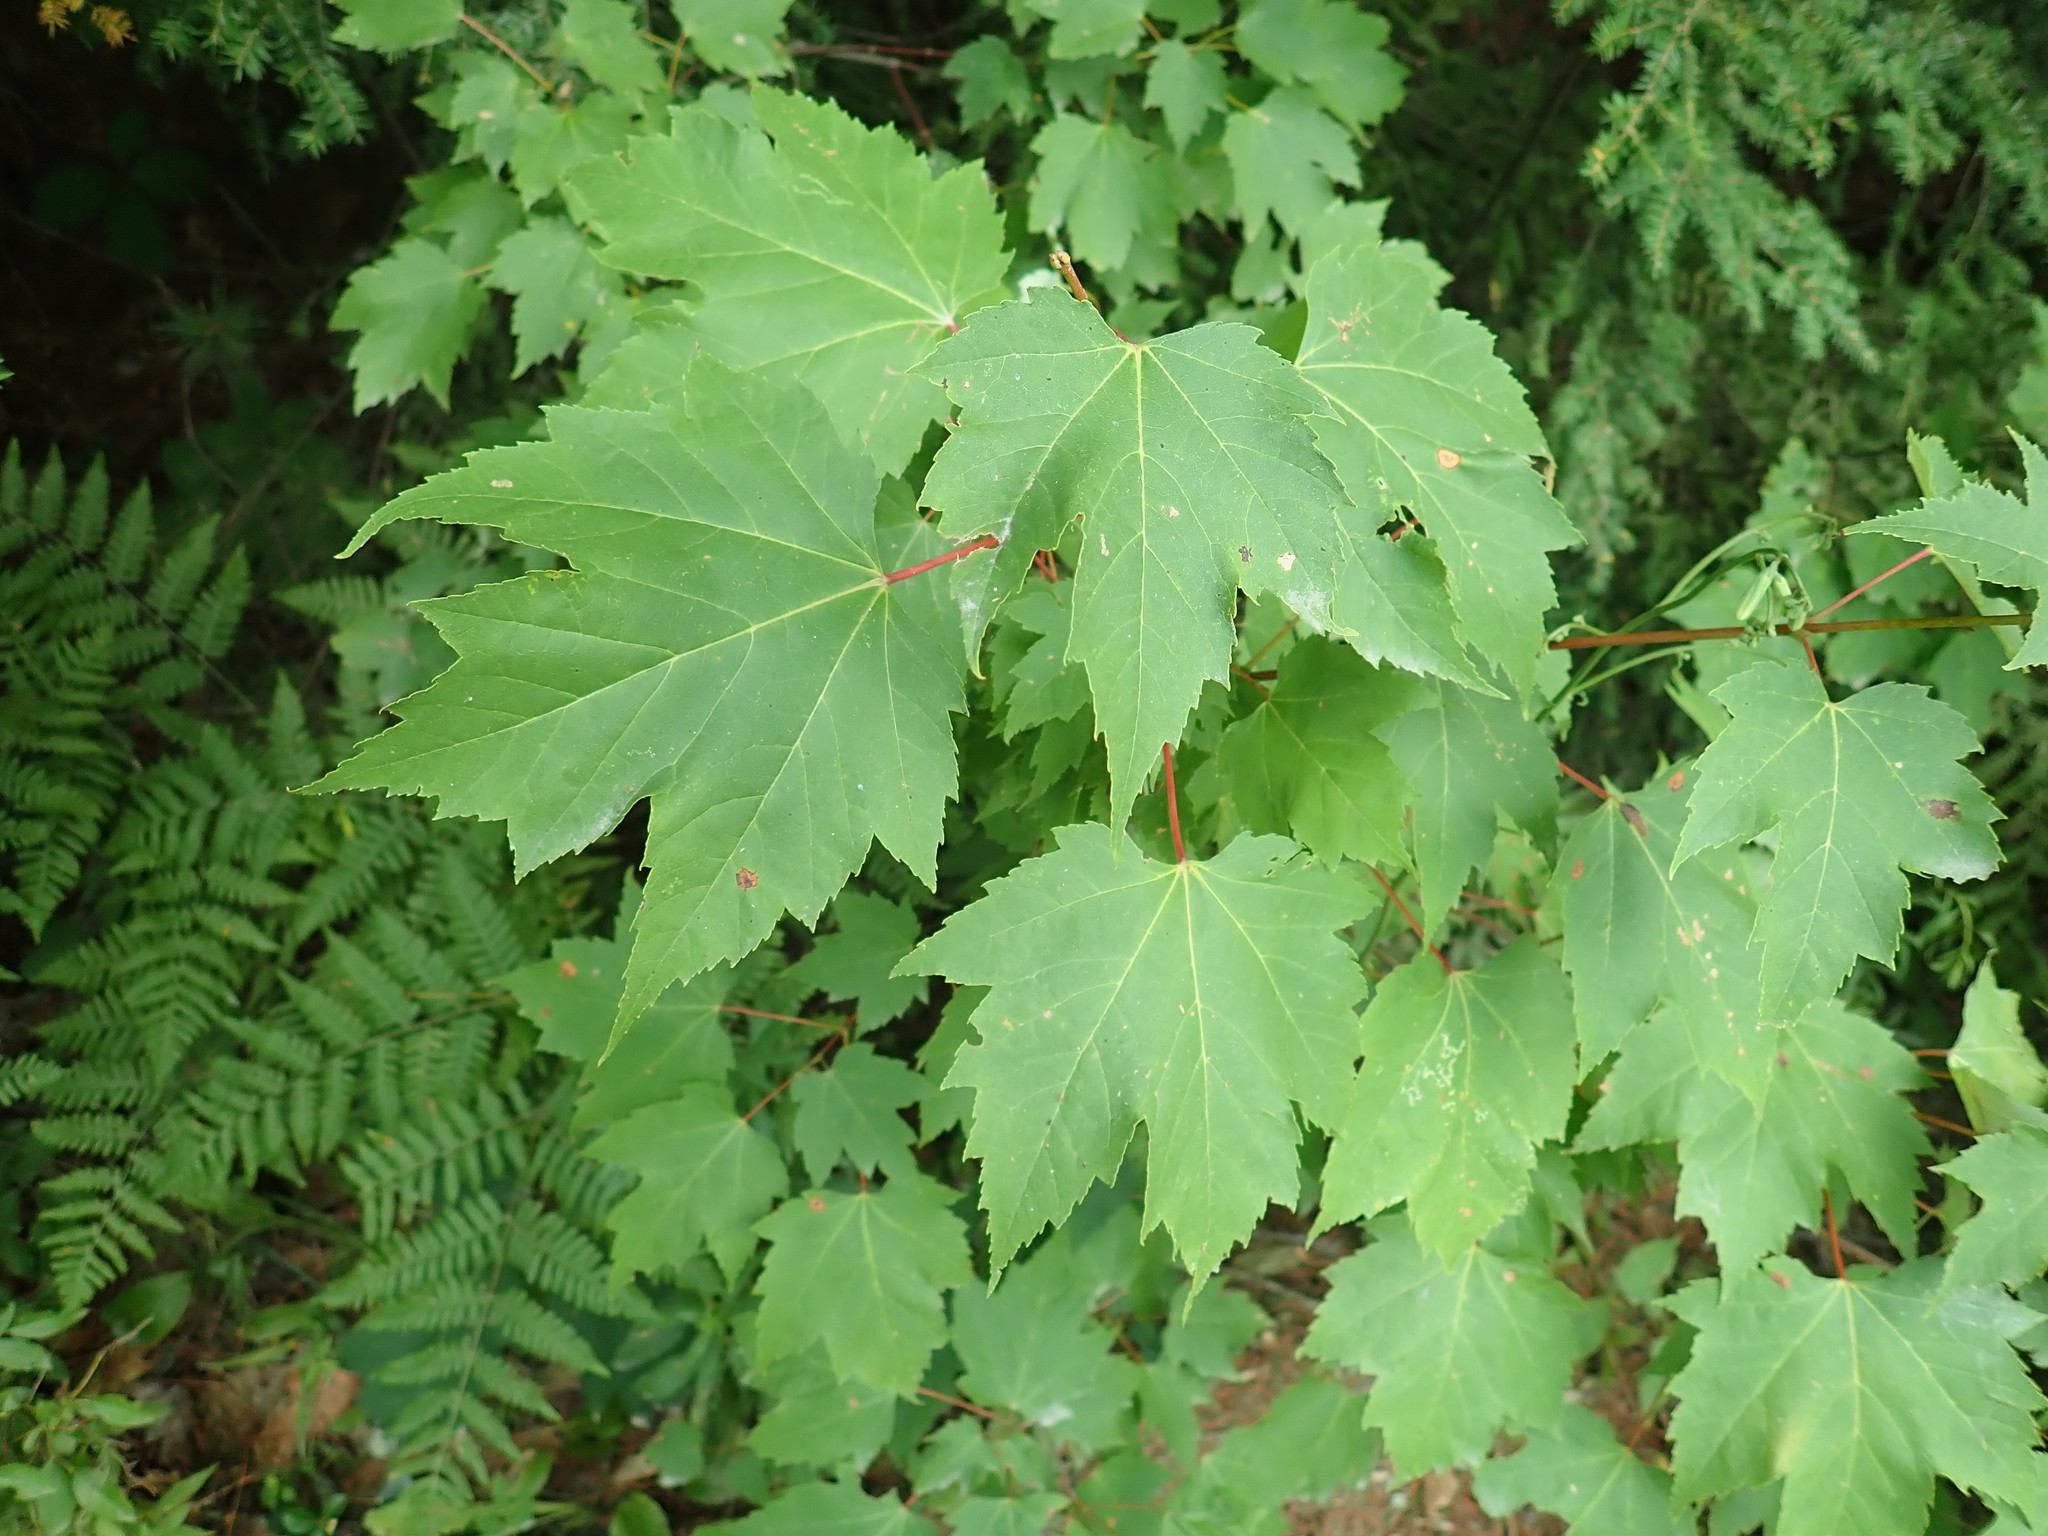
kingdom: Plantae
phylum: Tracheophyta
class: Magnoliopsida
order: Sapindales
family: Sapindaceae
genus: Acer
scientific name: Acer rubrum
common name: Red maple
